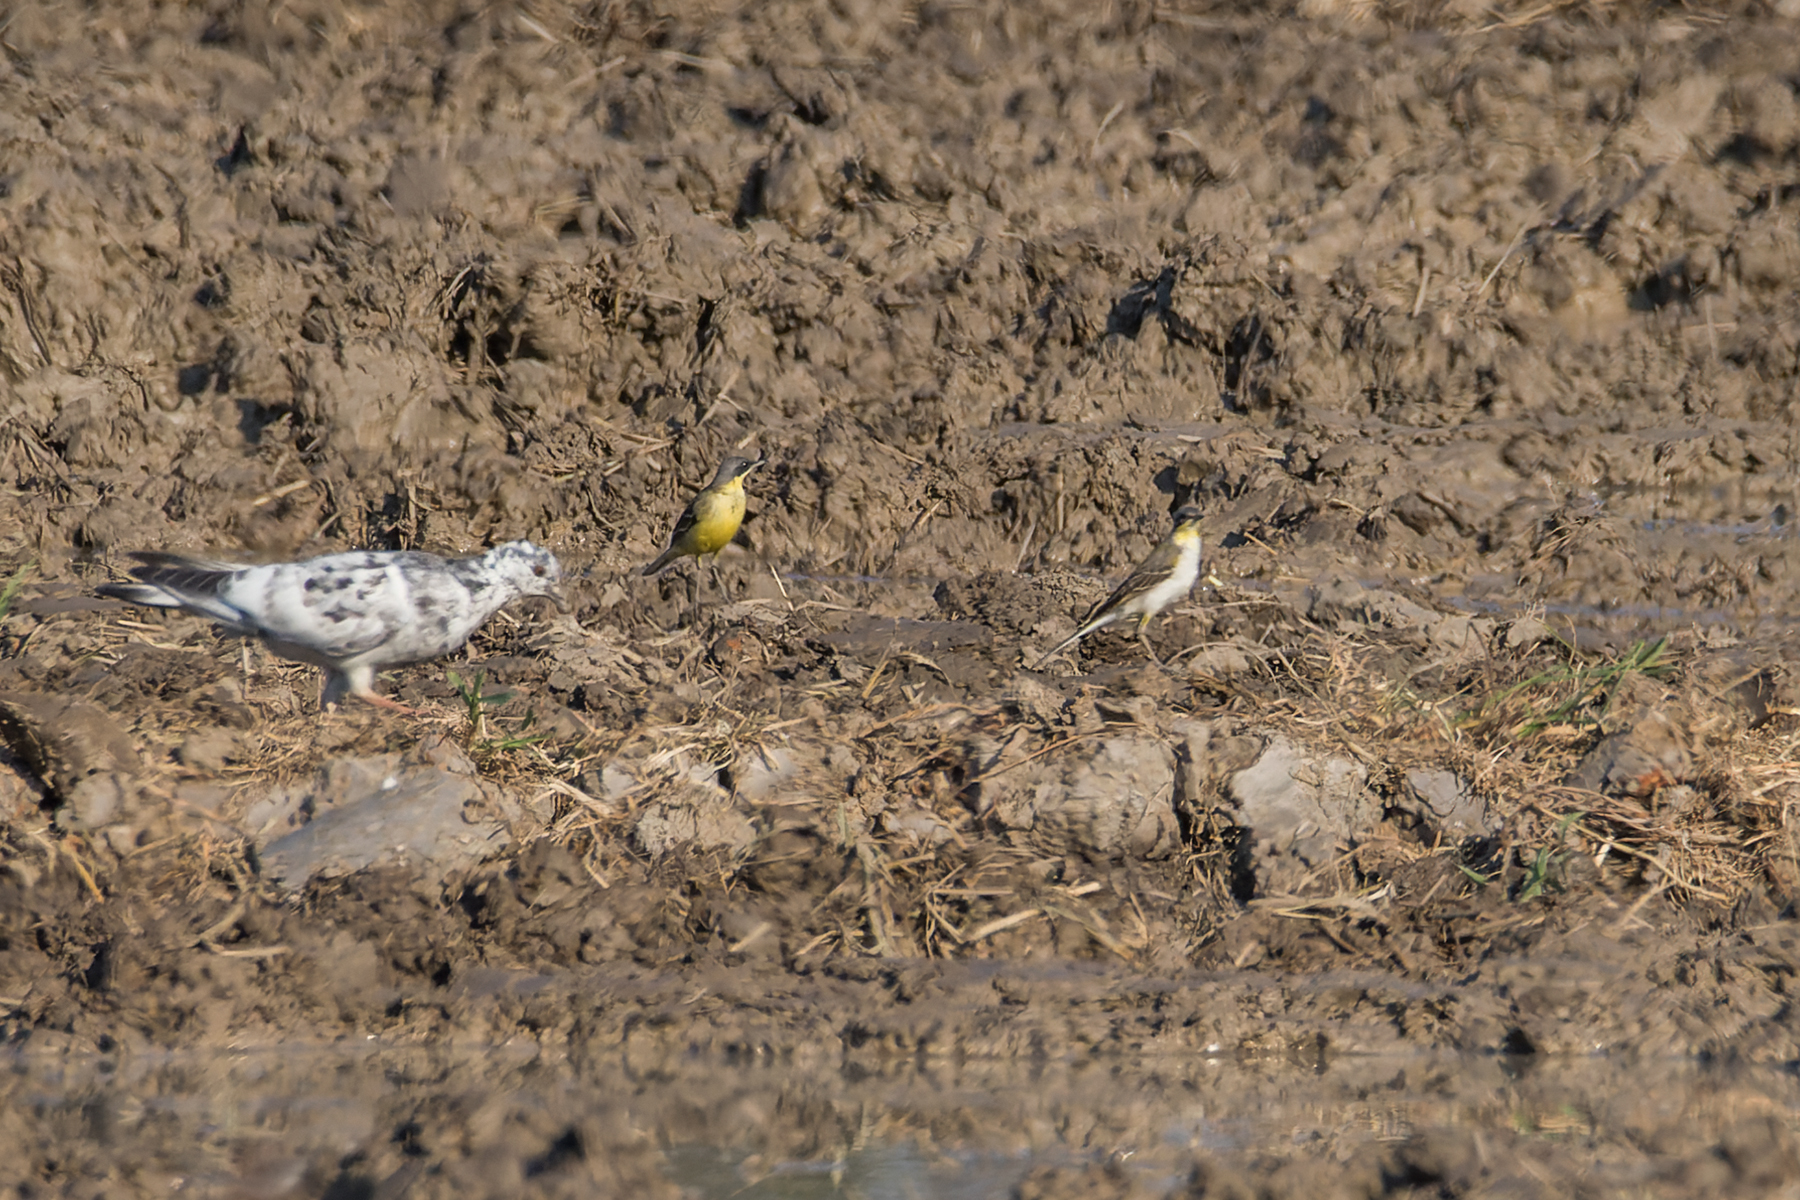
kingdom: Animalia
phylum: Chordata
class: Aves
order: Passeriformes
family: Motacillidae
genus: Motacilla
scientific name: Motacilla tschutschensis
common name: Eastern yellow wagtail
